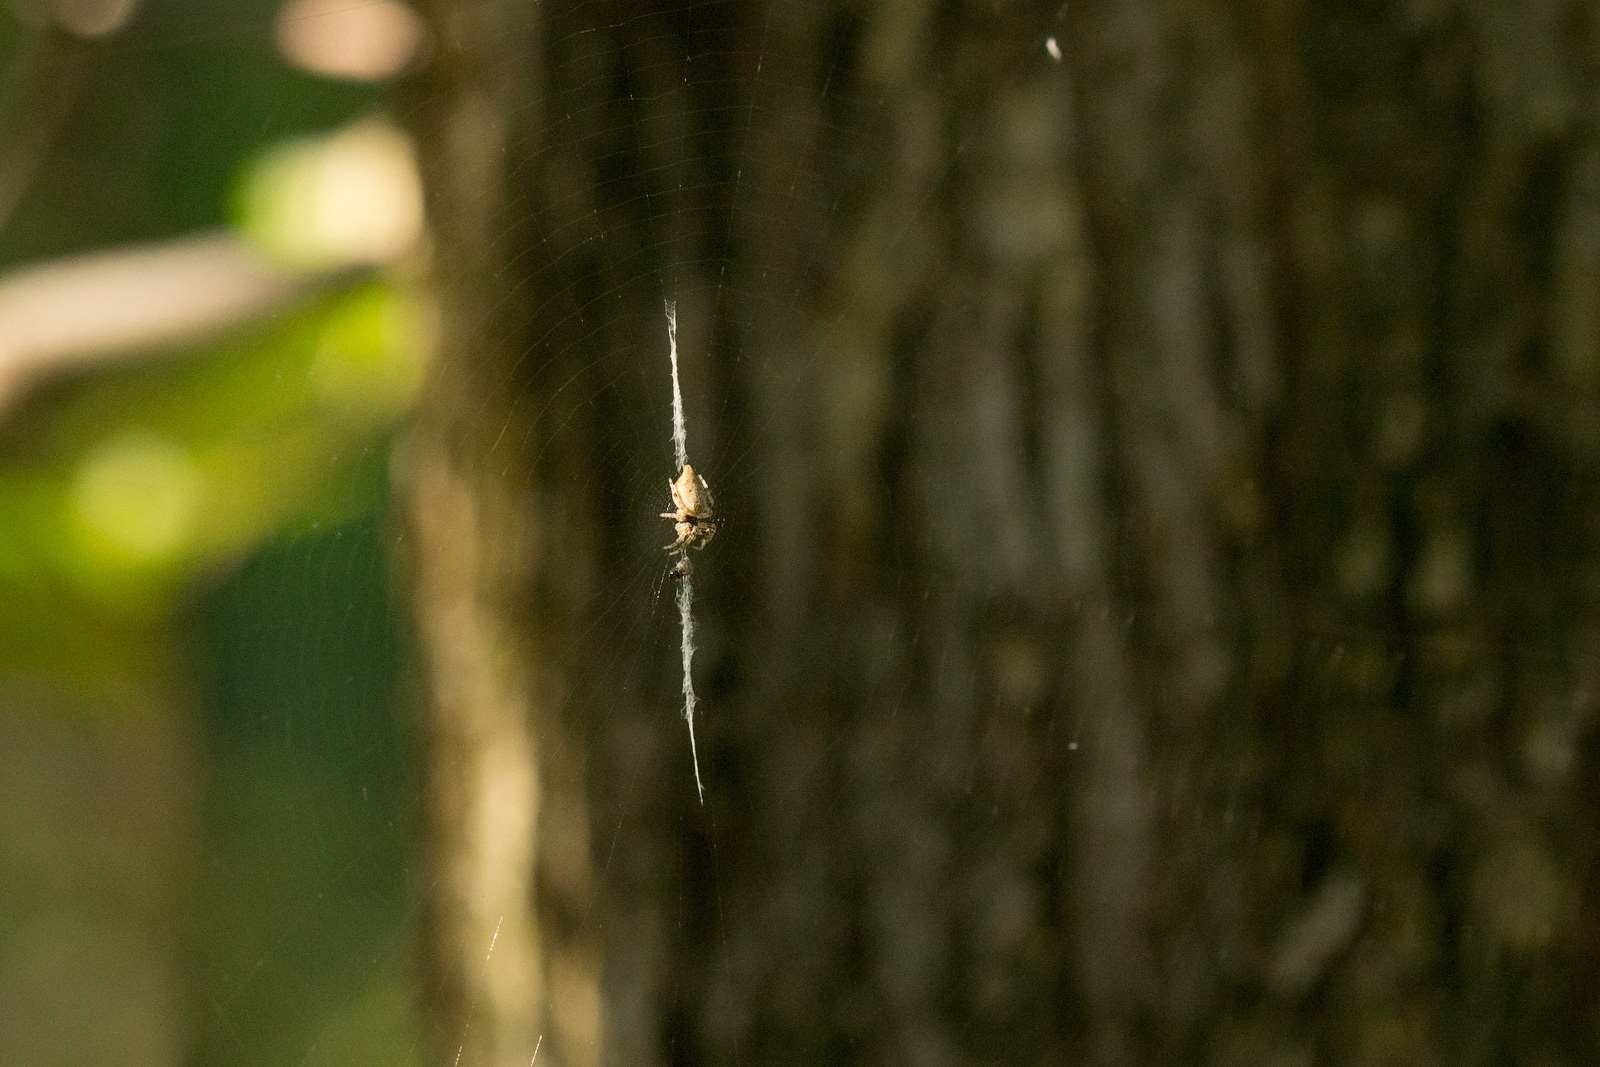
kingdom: Animalia
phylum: Arthropoda
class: Arachnida
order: Araneae
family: Araneidae
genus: Cyclosa
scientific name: Cyclosa conica
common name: Conical trashline orbweaver
